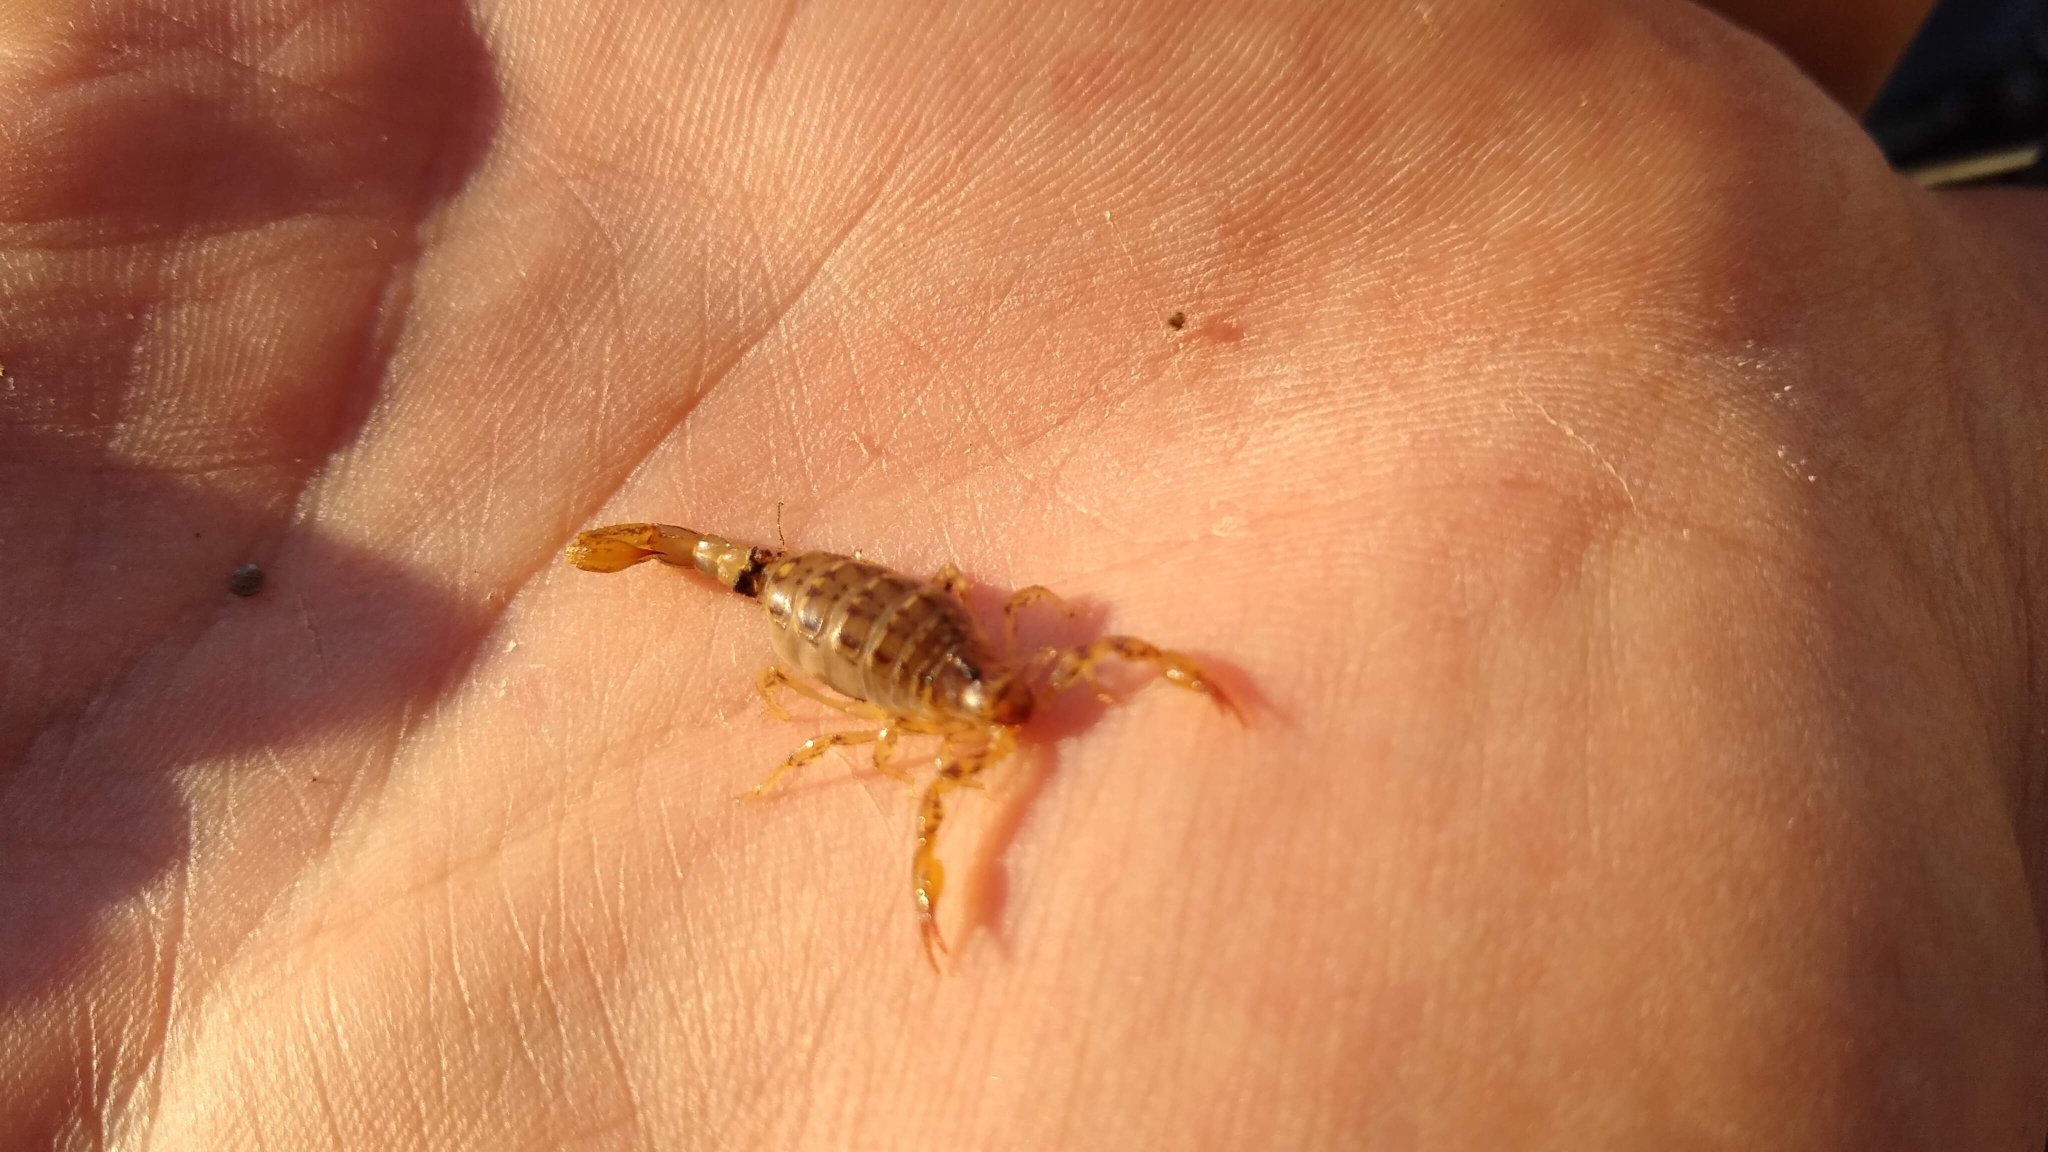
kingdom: Animalia
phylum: Arthropoda
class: Arachnida
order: Scorpiones
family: Bothriuridae
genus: Urophonius
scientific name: Urophonius brachycentrus
